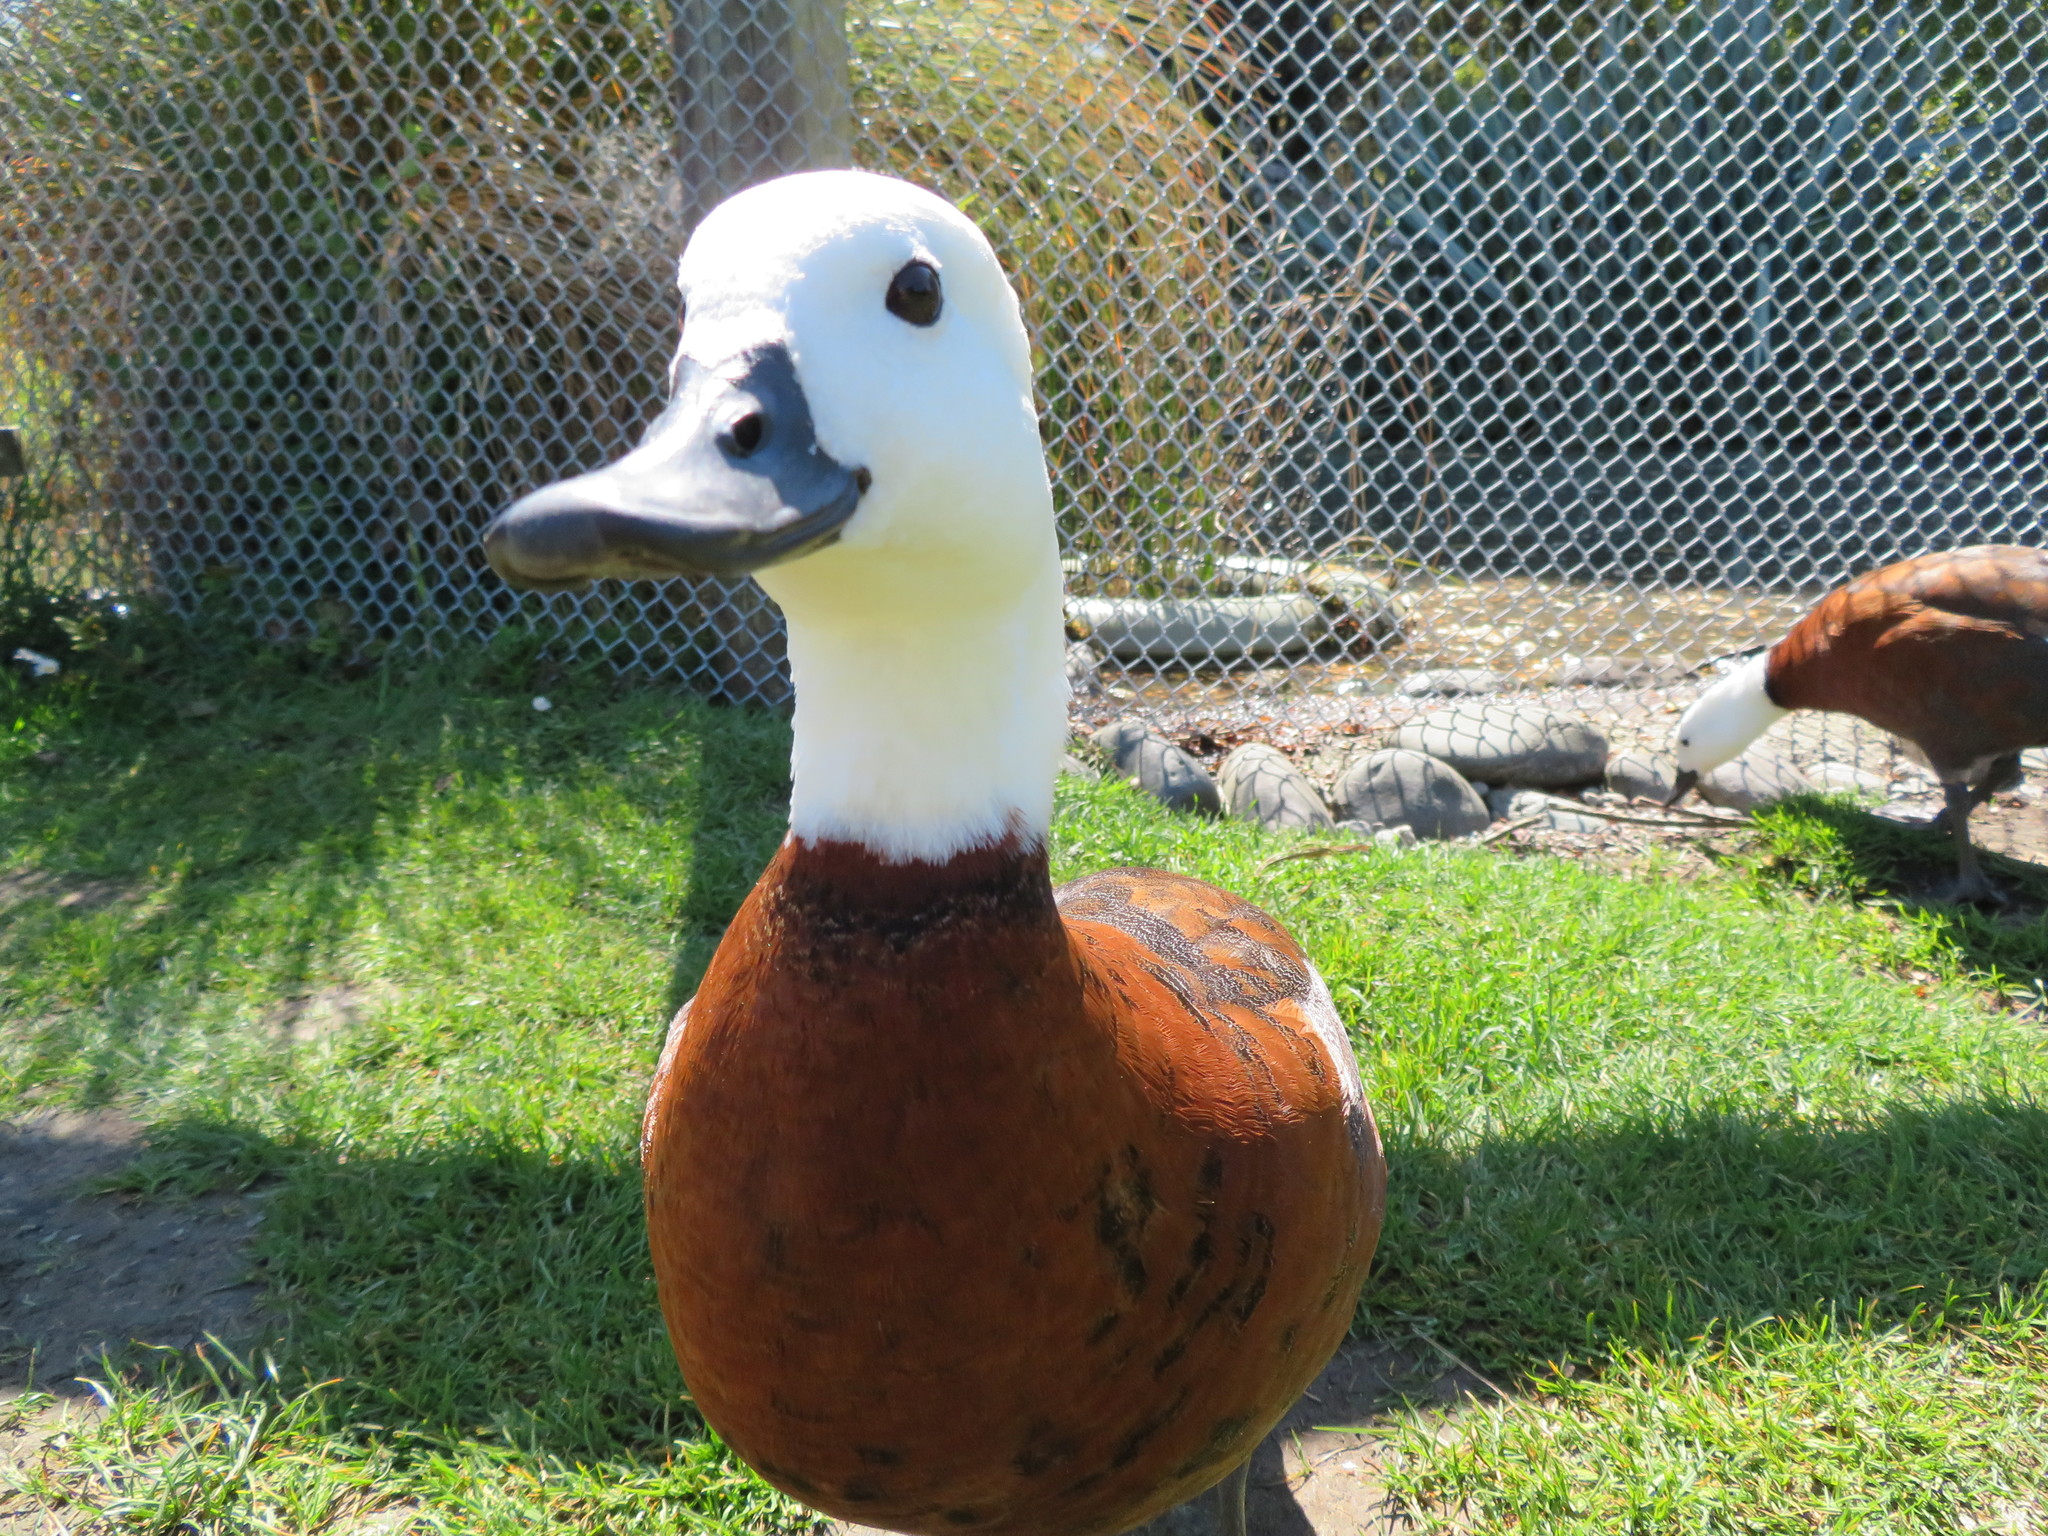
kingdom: Animalia
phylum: Chordata
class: Aves
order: Anseriformes
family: Anatidae
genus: Tadorna
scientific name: Tadorna variegata
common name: Paradise shelduck
